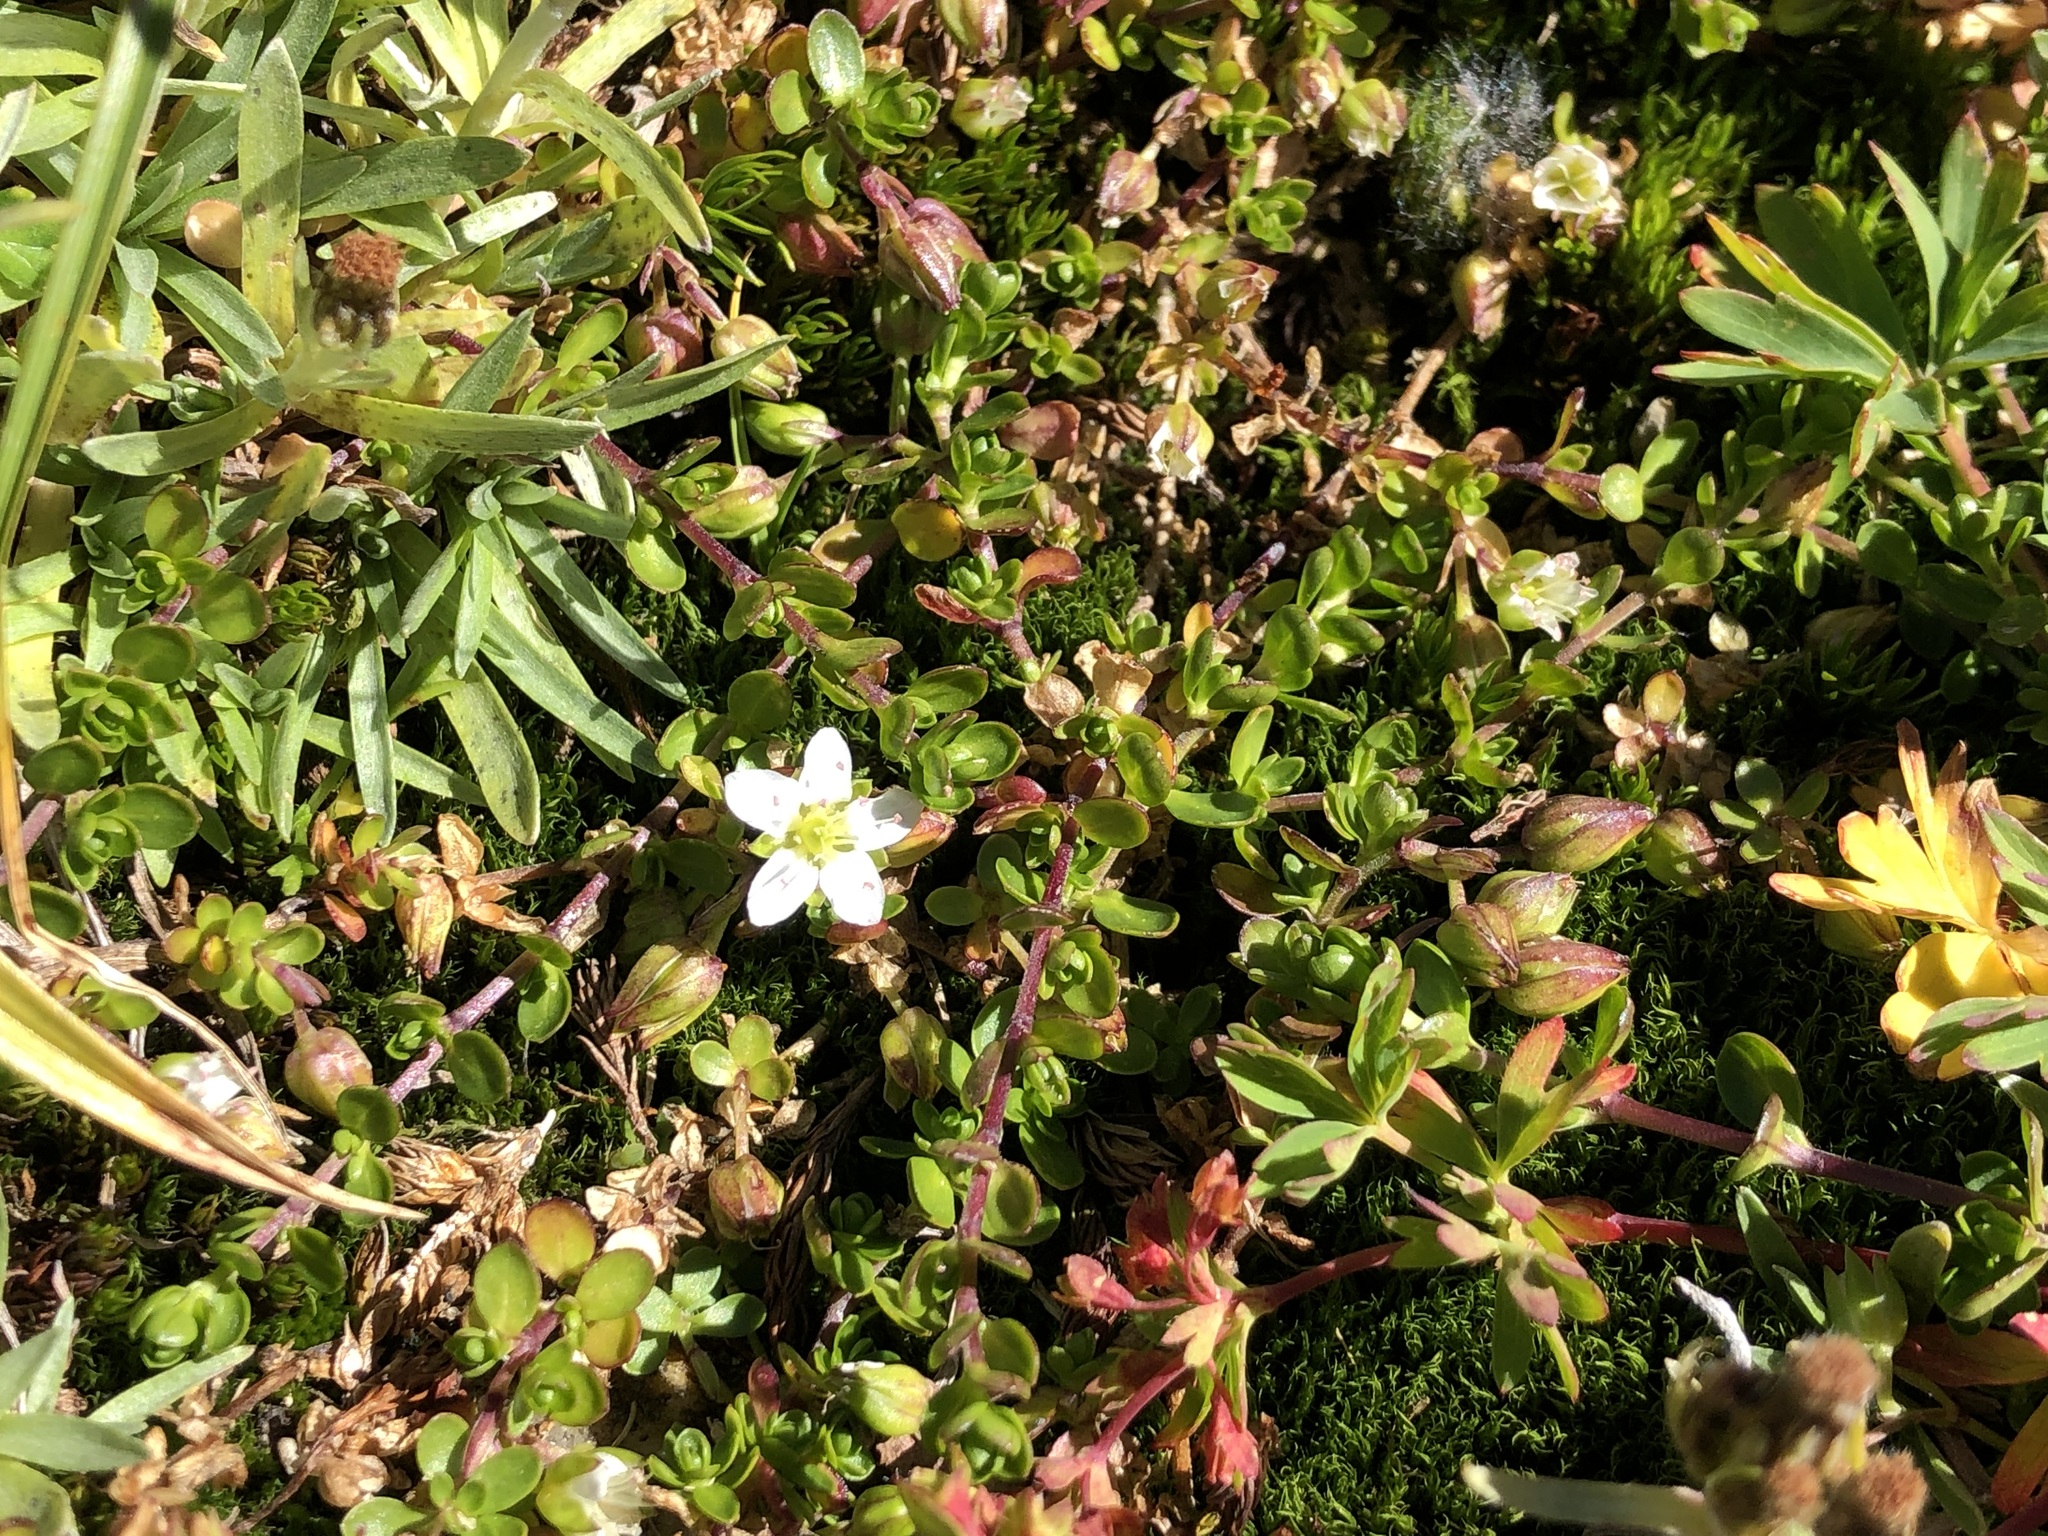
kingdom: Plantae
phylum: Tracheophyta
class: Magnoliopsida
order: Caryophyllales
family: Caryophyllaceae
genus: Arenaria
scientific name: Arenaria biflora
